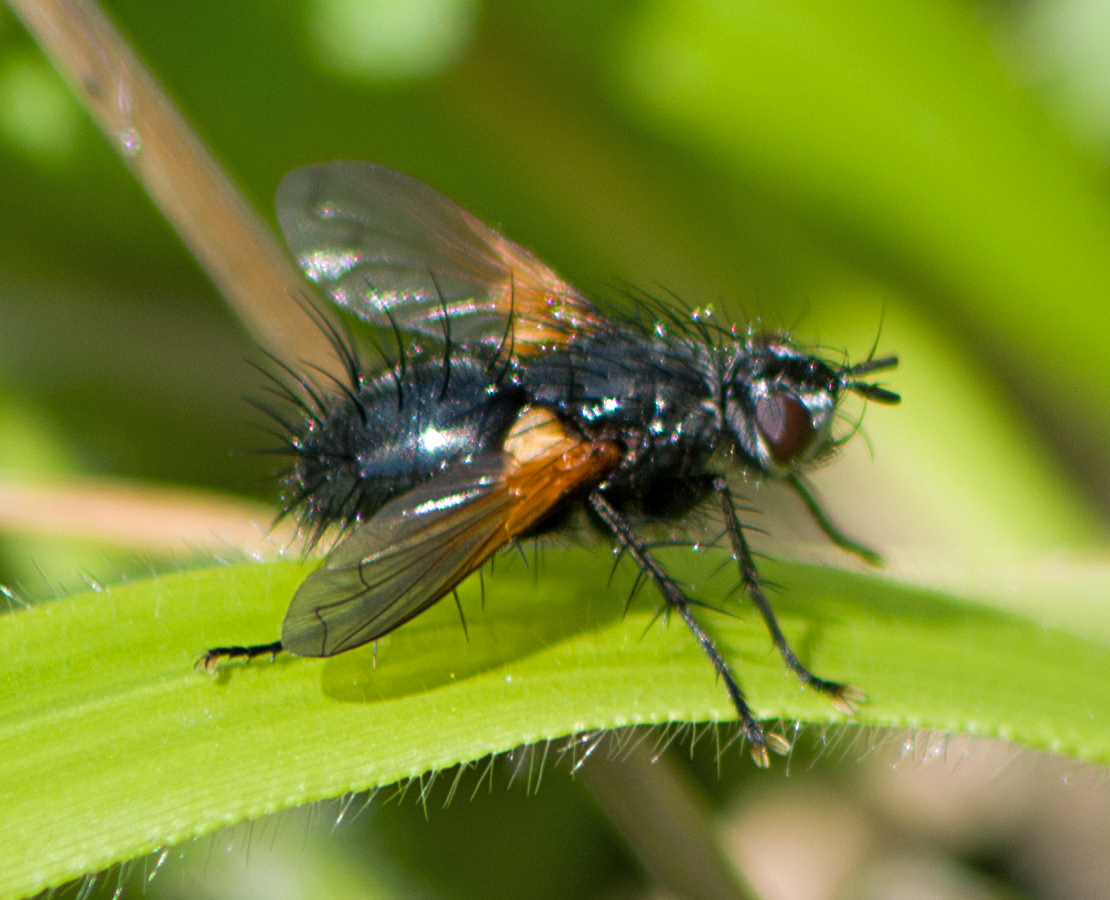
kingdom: Animalia
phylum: Arthropoda
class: Insecta
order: Diptera
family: Tachinidae
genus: Zophomyia
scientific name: Zophomyia temula
